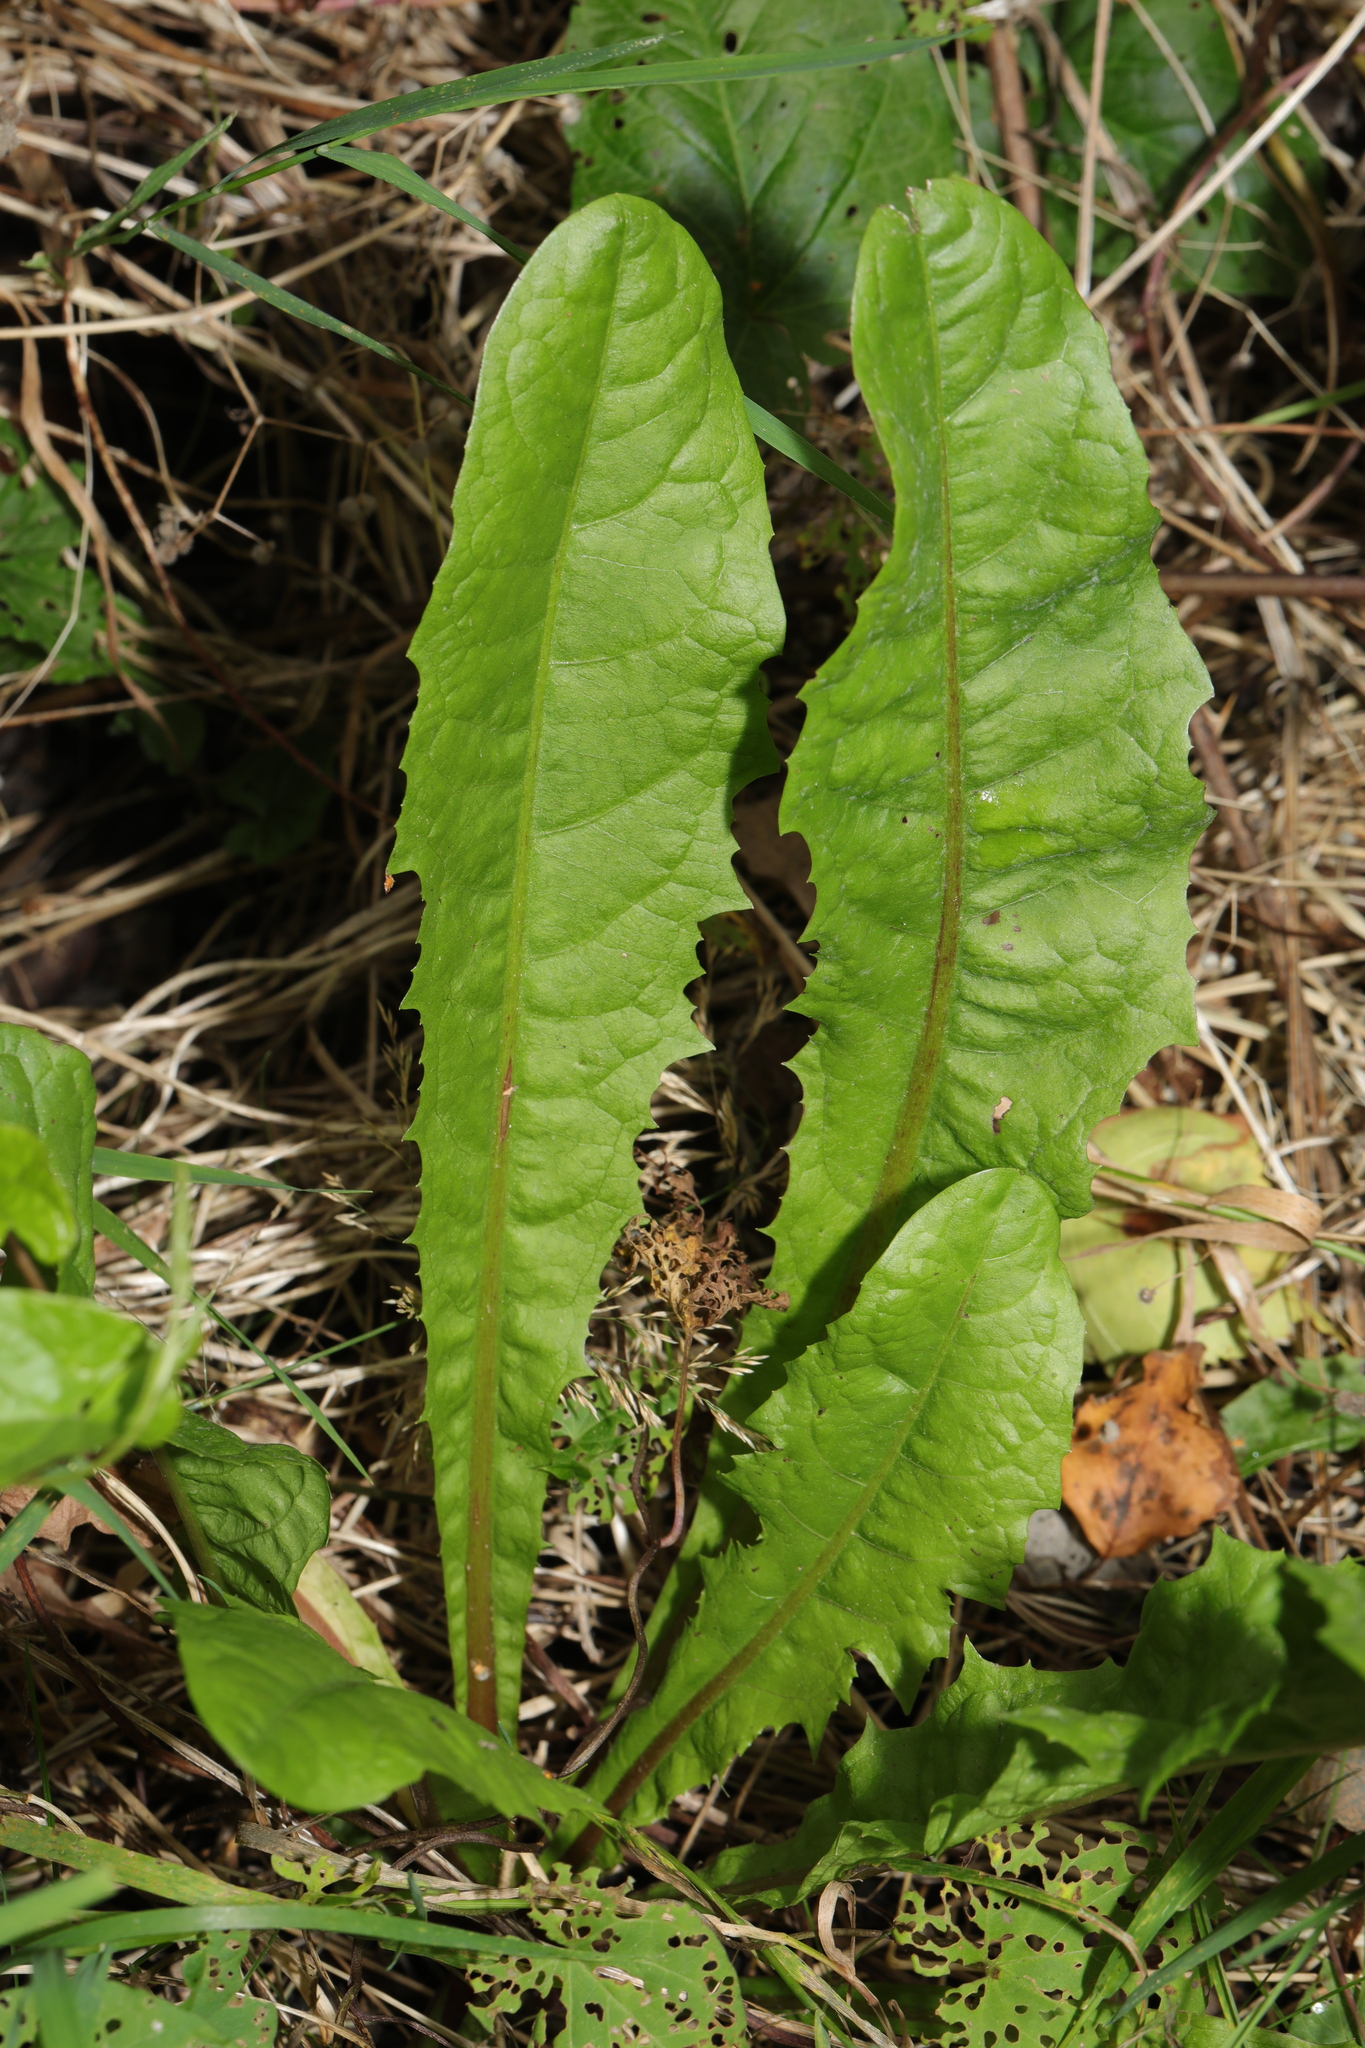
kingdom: Plantae
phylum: Tracheophyta
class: Magnoliopsida
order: Asterales
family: Asteraceae
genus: Taraxacum
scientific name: Taraxacum officinale
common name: Common dandelion
